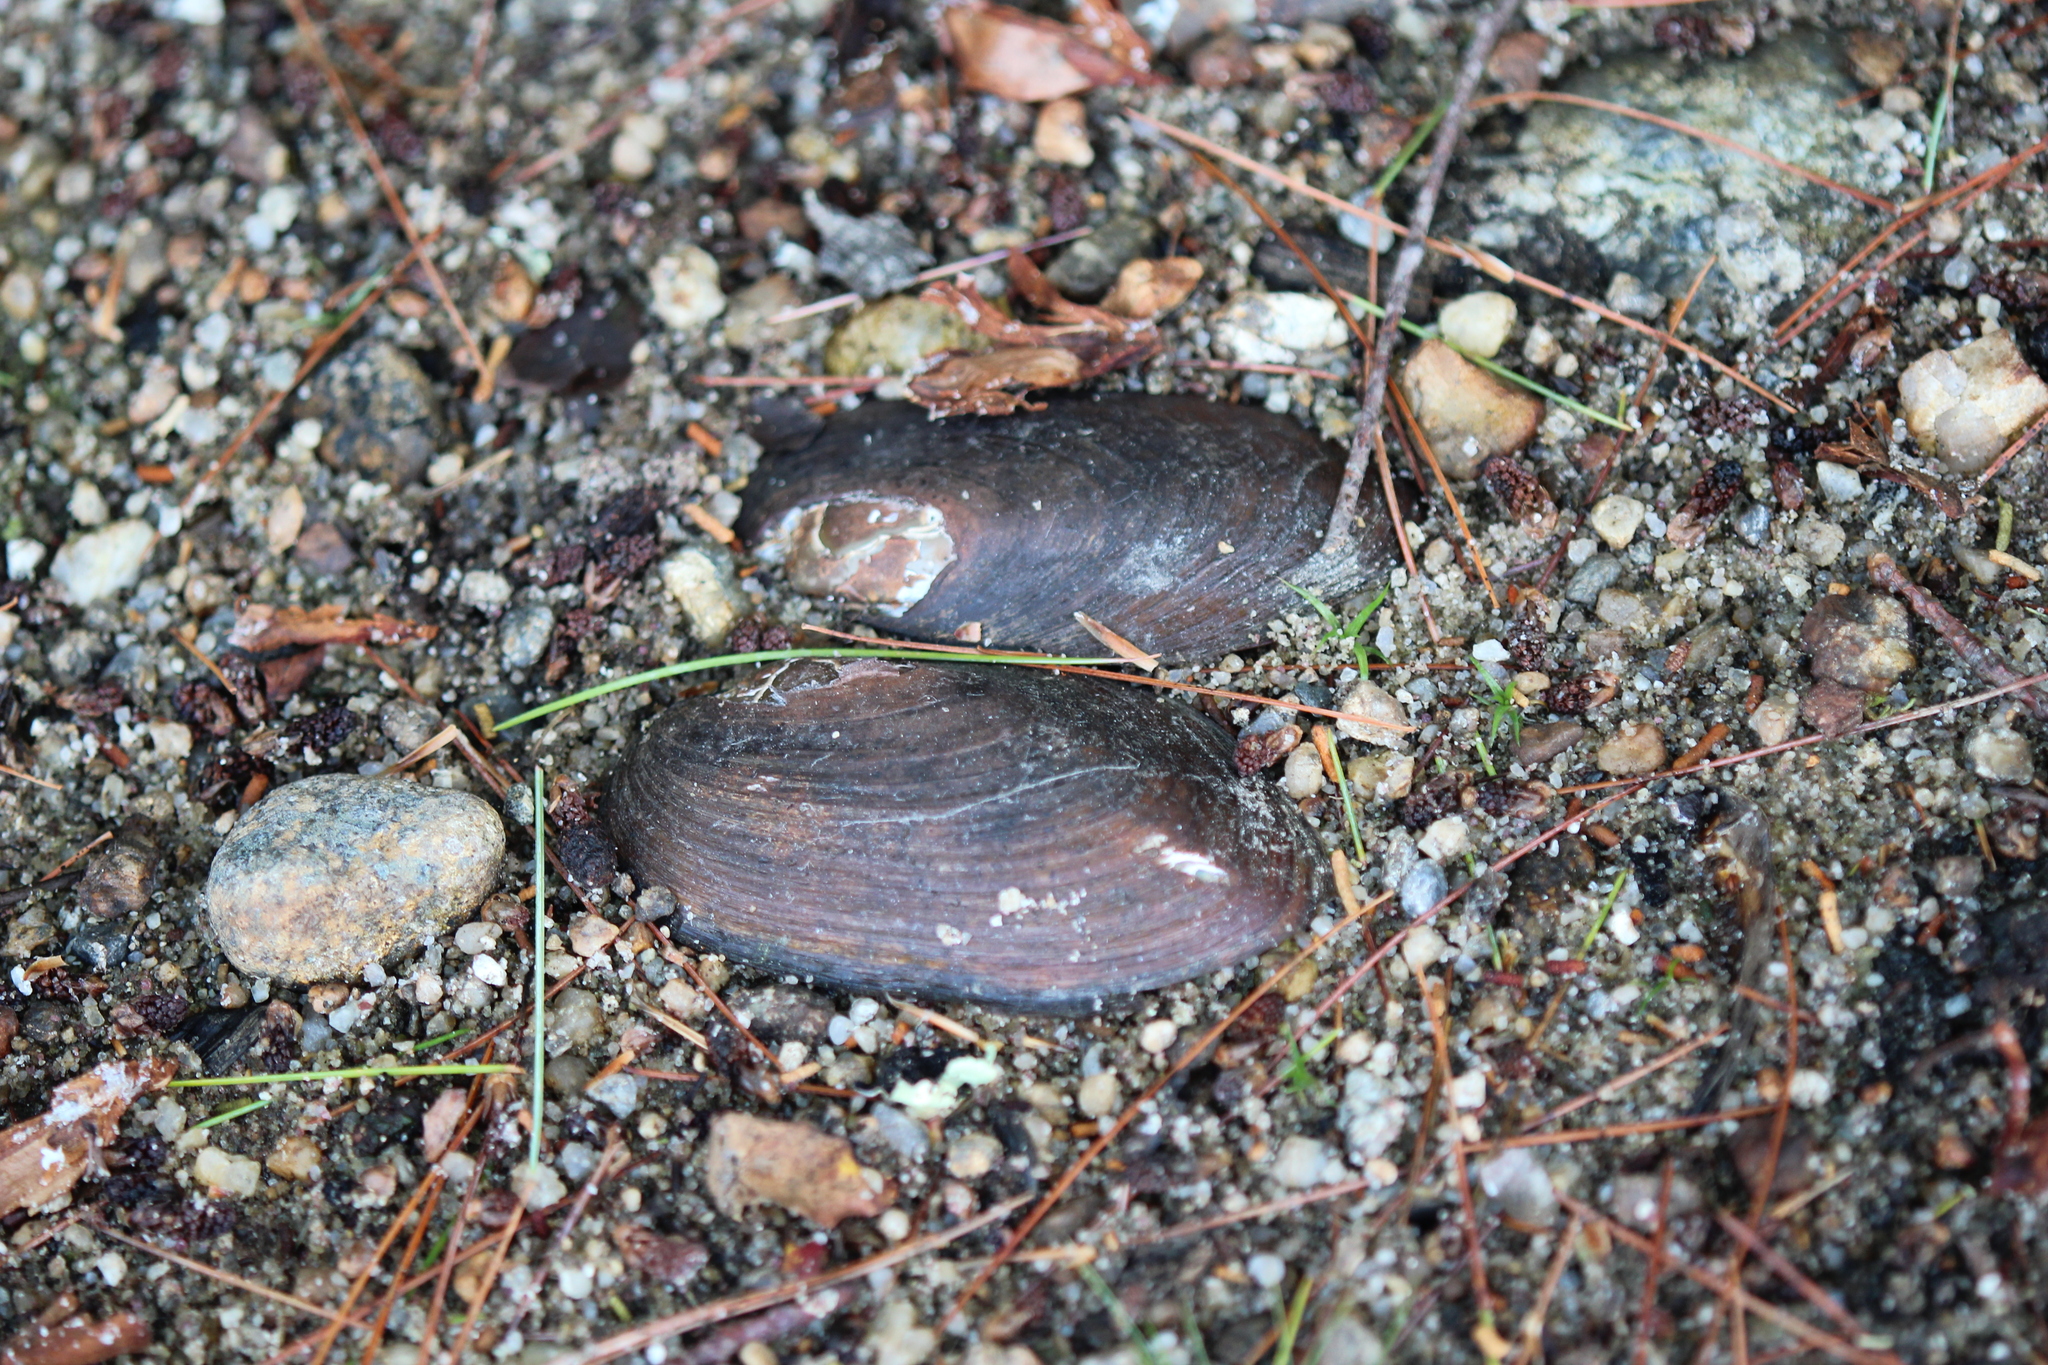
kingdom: Animalia
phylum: Mollusca
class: Bivalvia
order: Unionida
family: Unionidae
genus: Elliptio
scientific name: Elliptio complanata
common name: Eastern elliptio
